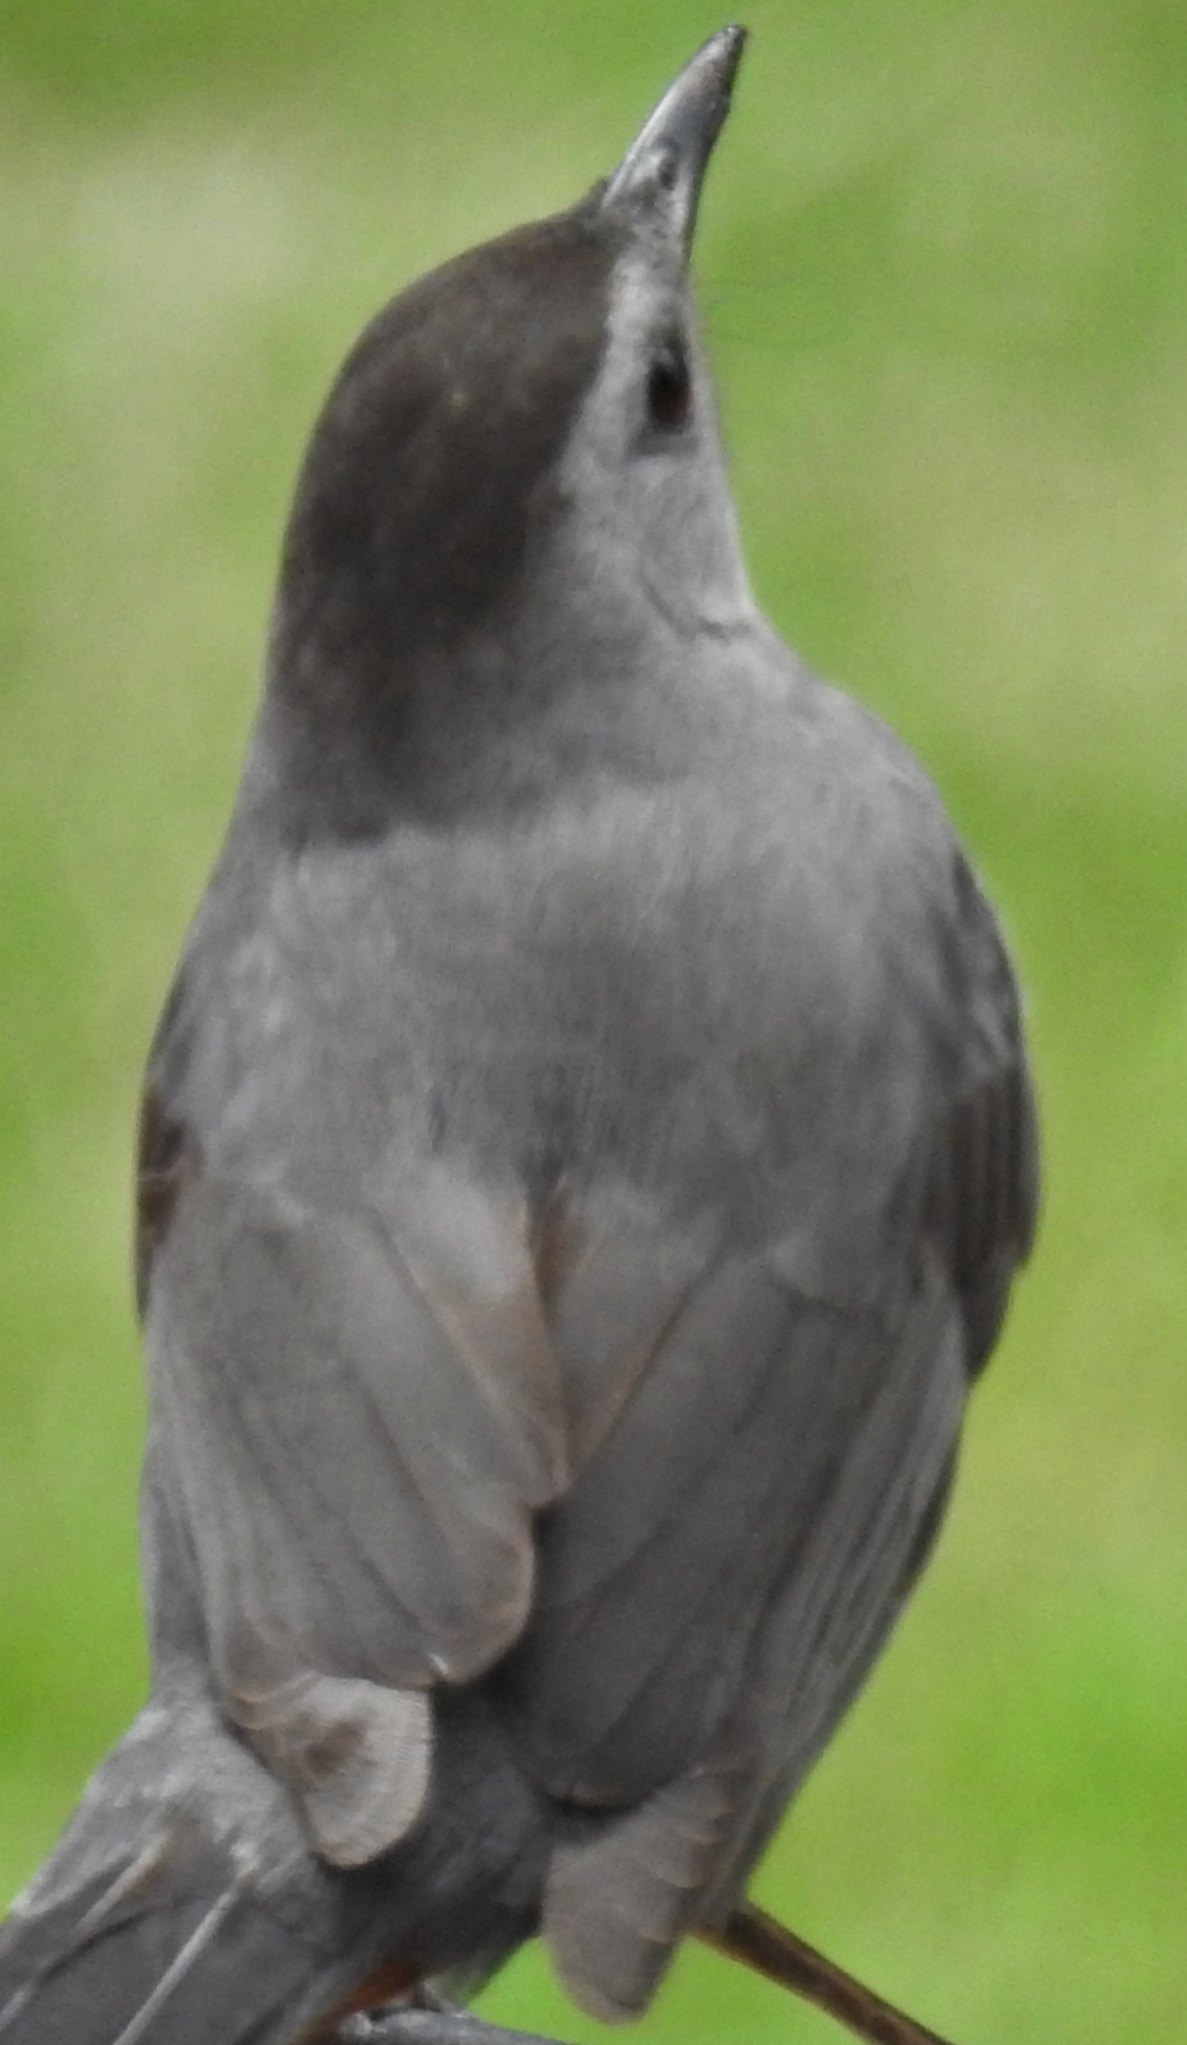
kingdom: Animalia
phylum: Chordata
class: Aves
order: Passeriformes
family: Mimidae
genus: Dumetella
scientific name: Dumetella carolinensis
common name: Gray catbird
